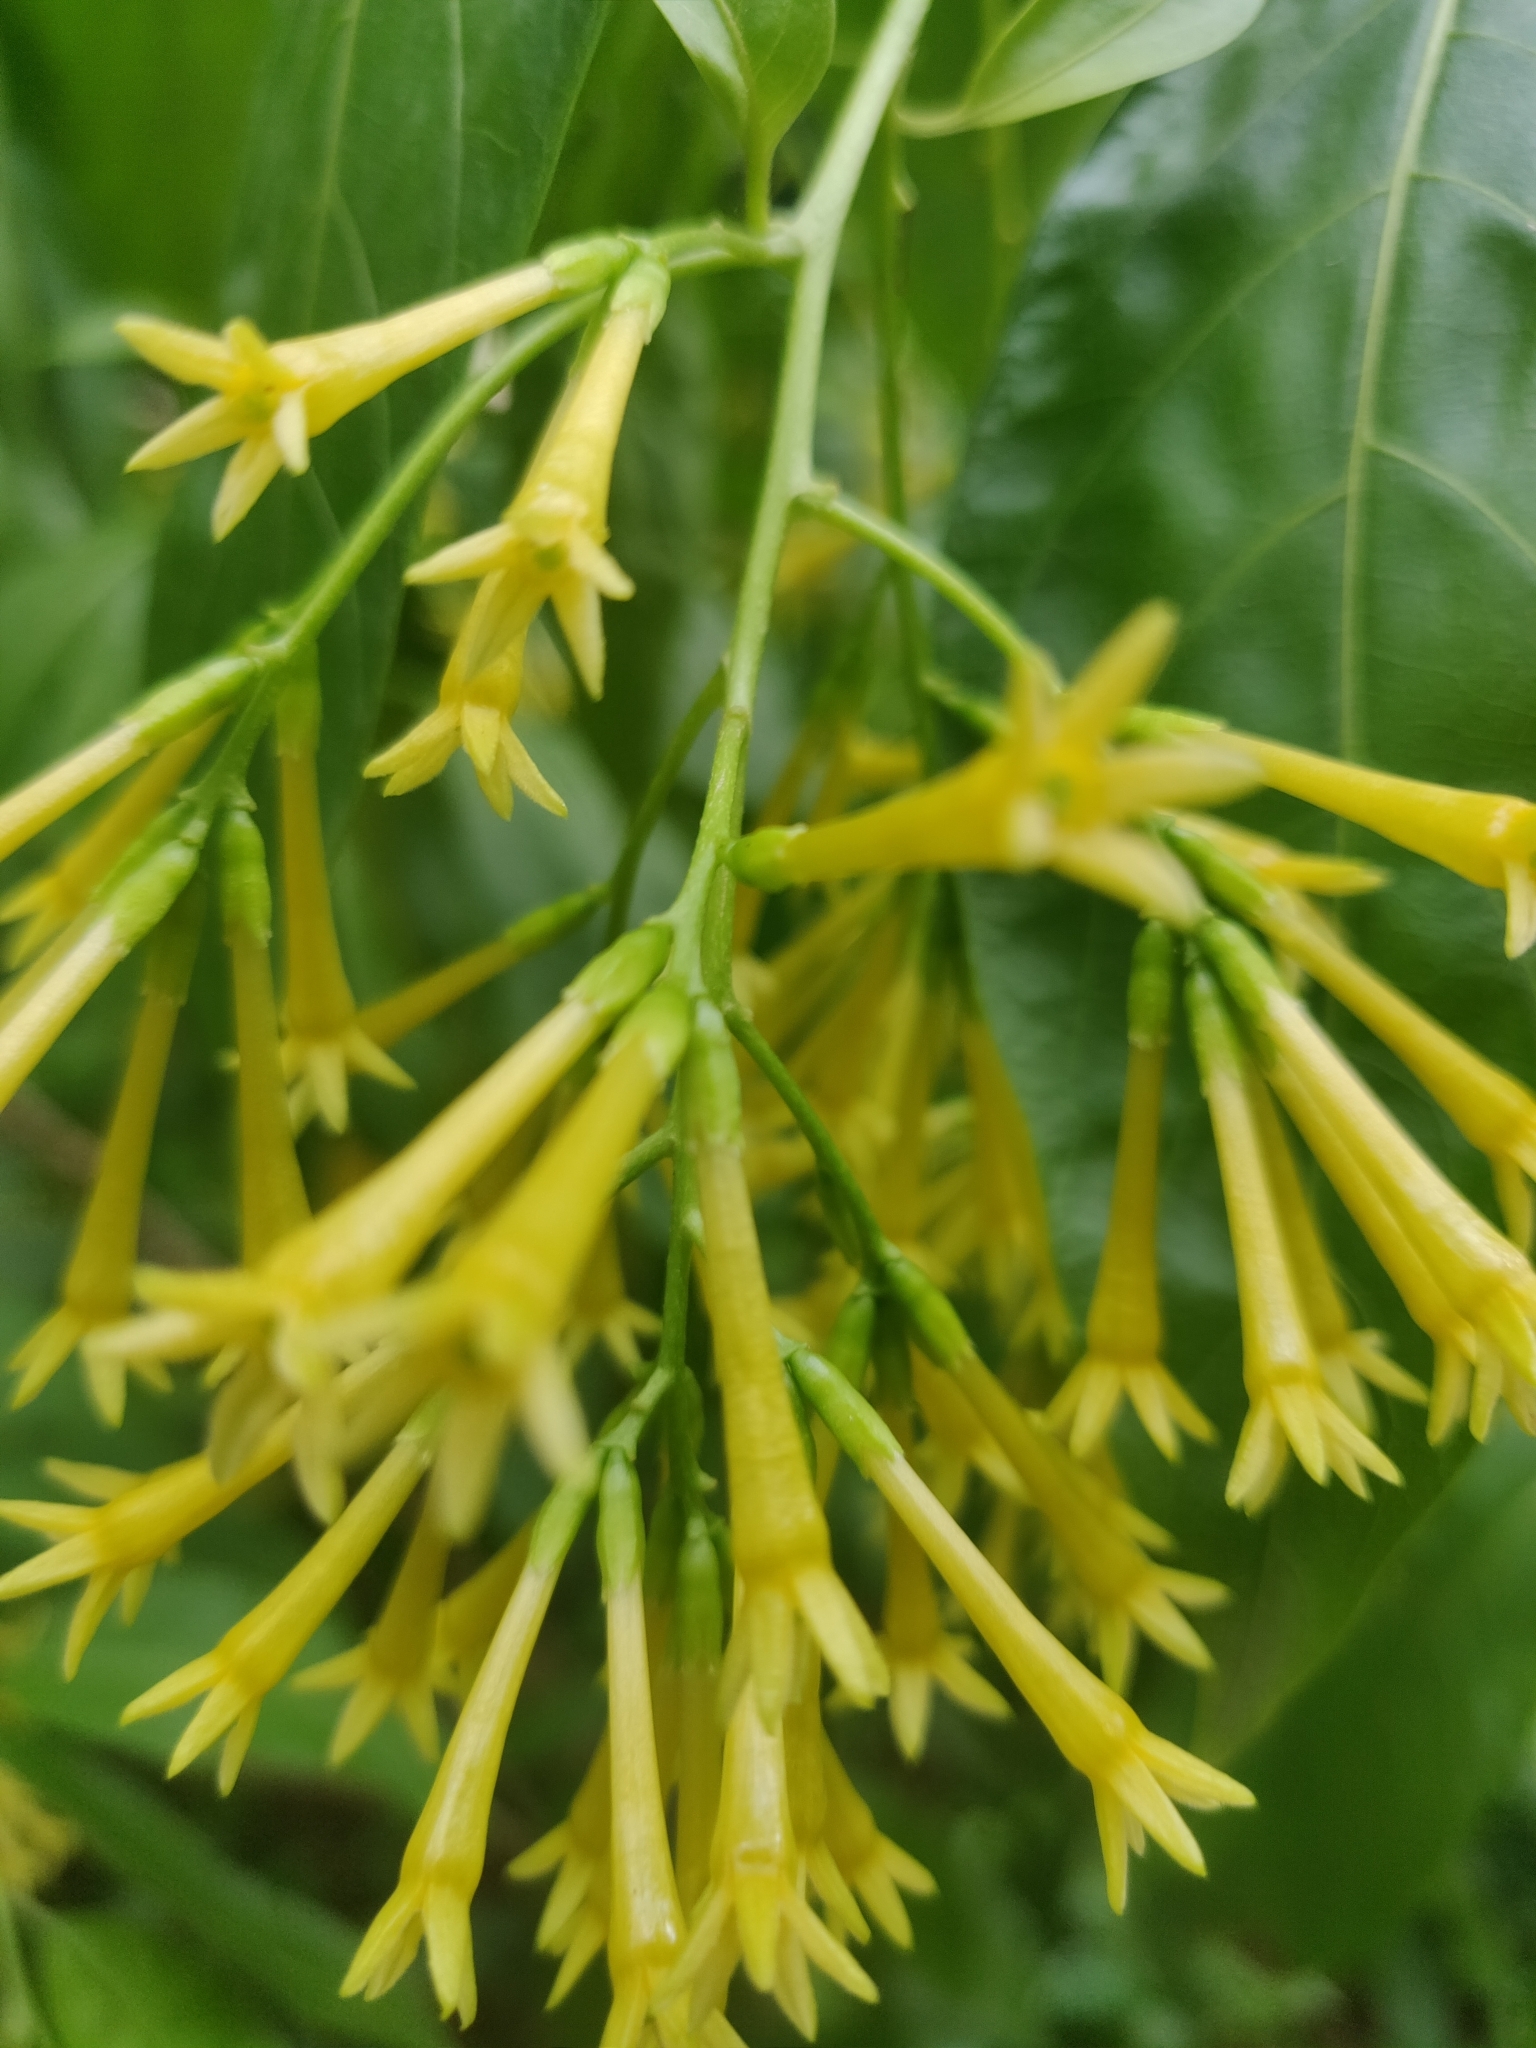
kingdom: Plantae
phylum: Tracheophyta
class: Magnoliopsida
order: Solanales
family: Solanaceae
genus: Cestrum
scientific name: Cestrum nocturnum
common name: Night jessamine
